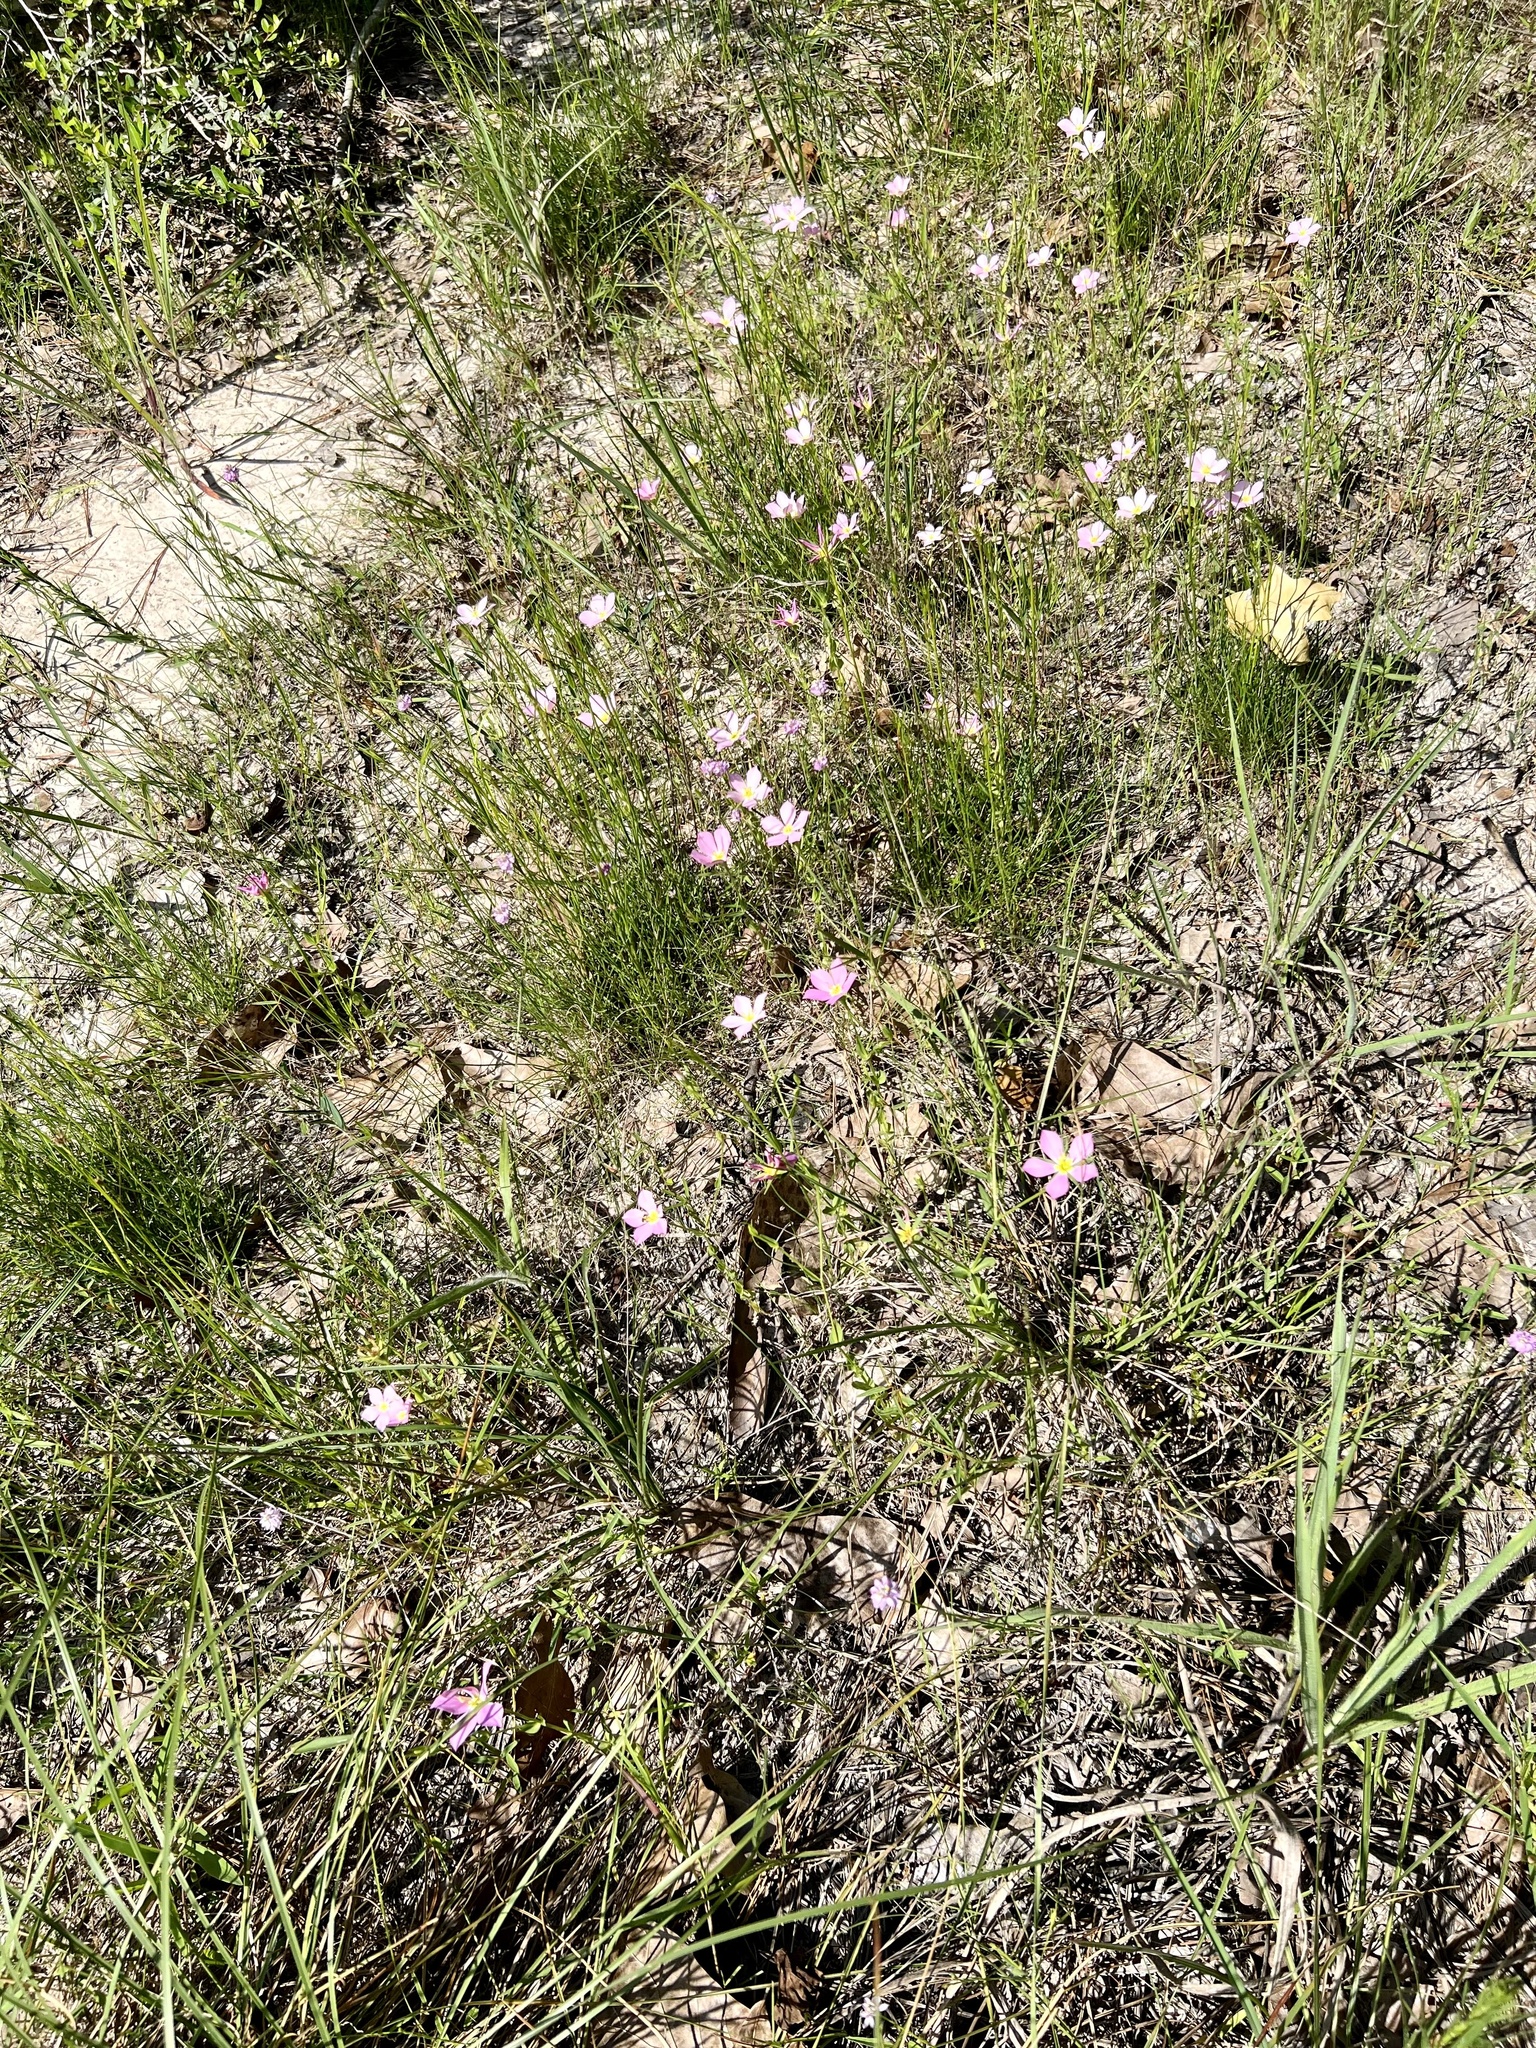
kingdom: Plantae
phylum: Tracheophyta
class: Magnoliopsida
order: Gentianales
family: Gentianaceae
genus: Sabatia
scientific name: Sabatia campestris
